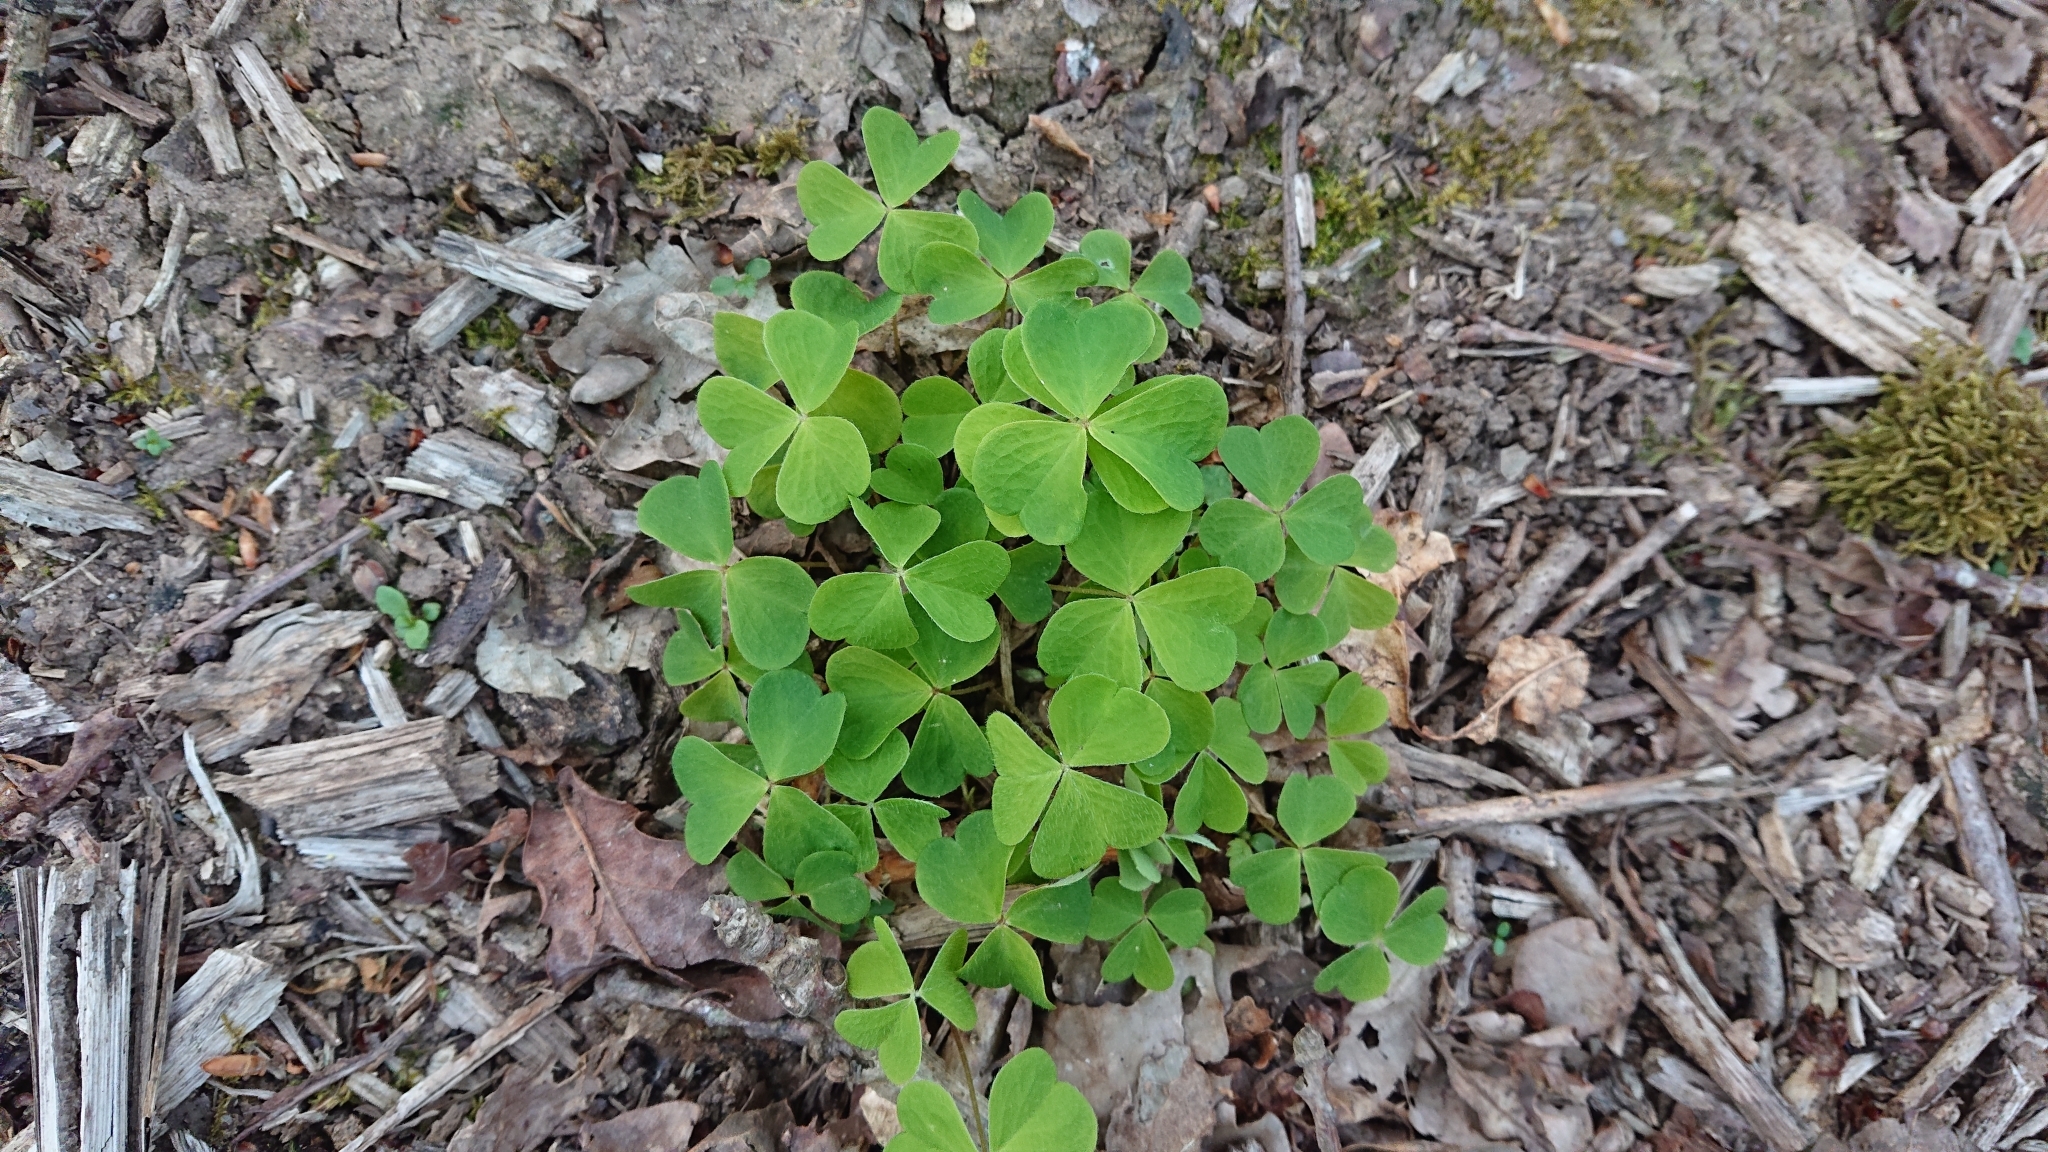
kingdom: Plantae
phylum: Tracheophyta
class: Magnoliopsida
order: Oxalidales
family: Oxalidaceae
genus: Oxalis
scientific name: Oxalis acetosella
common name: Wood-sorrel
